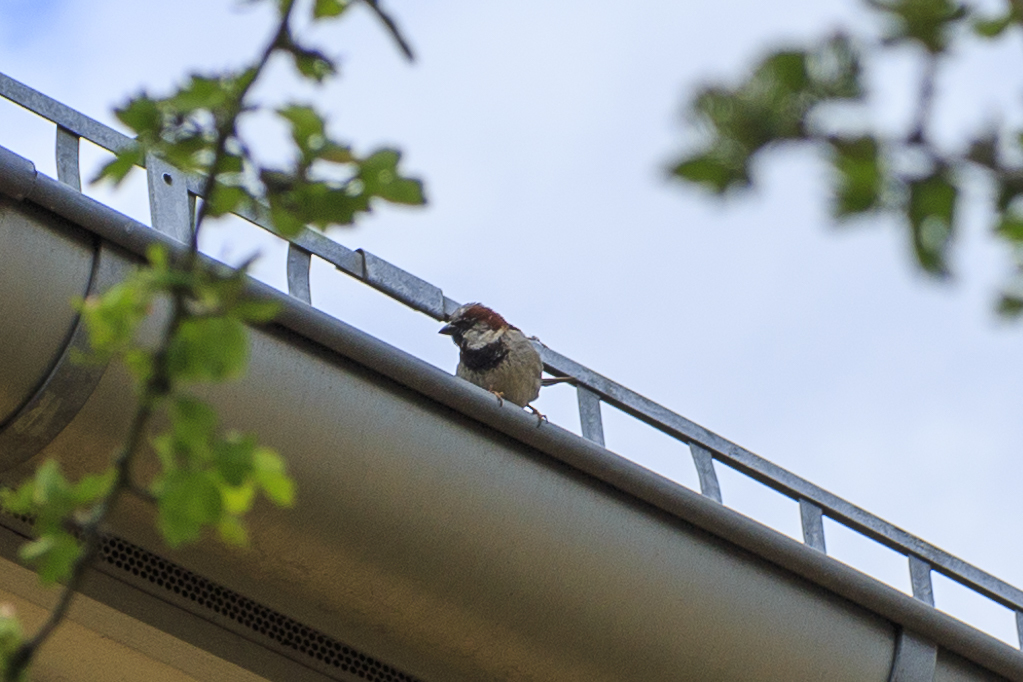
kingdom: Animalia
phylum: Chordata
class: Aves
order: Passeriformes
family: Passeridae
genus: Passer
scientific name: Passer domesticus
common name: House sparrow
